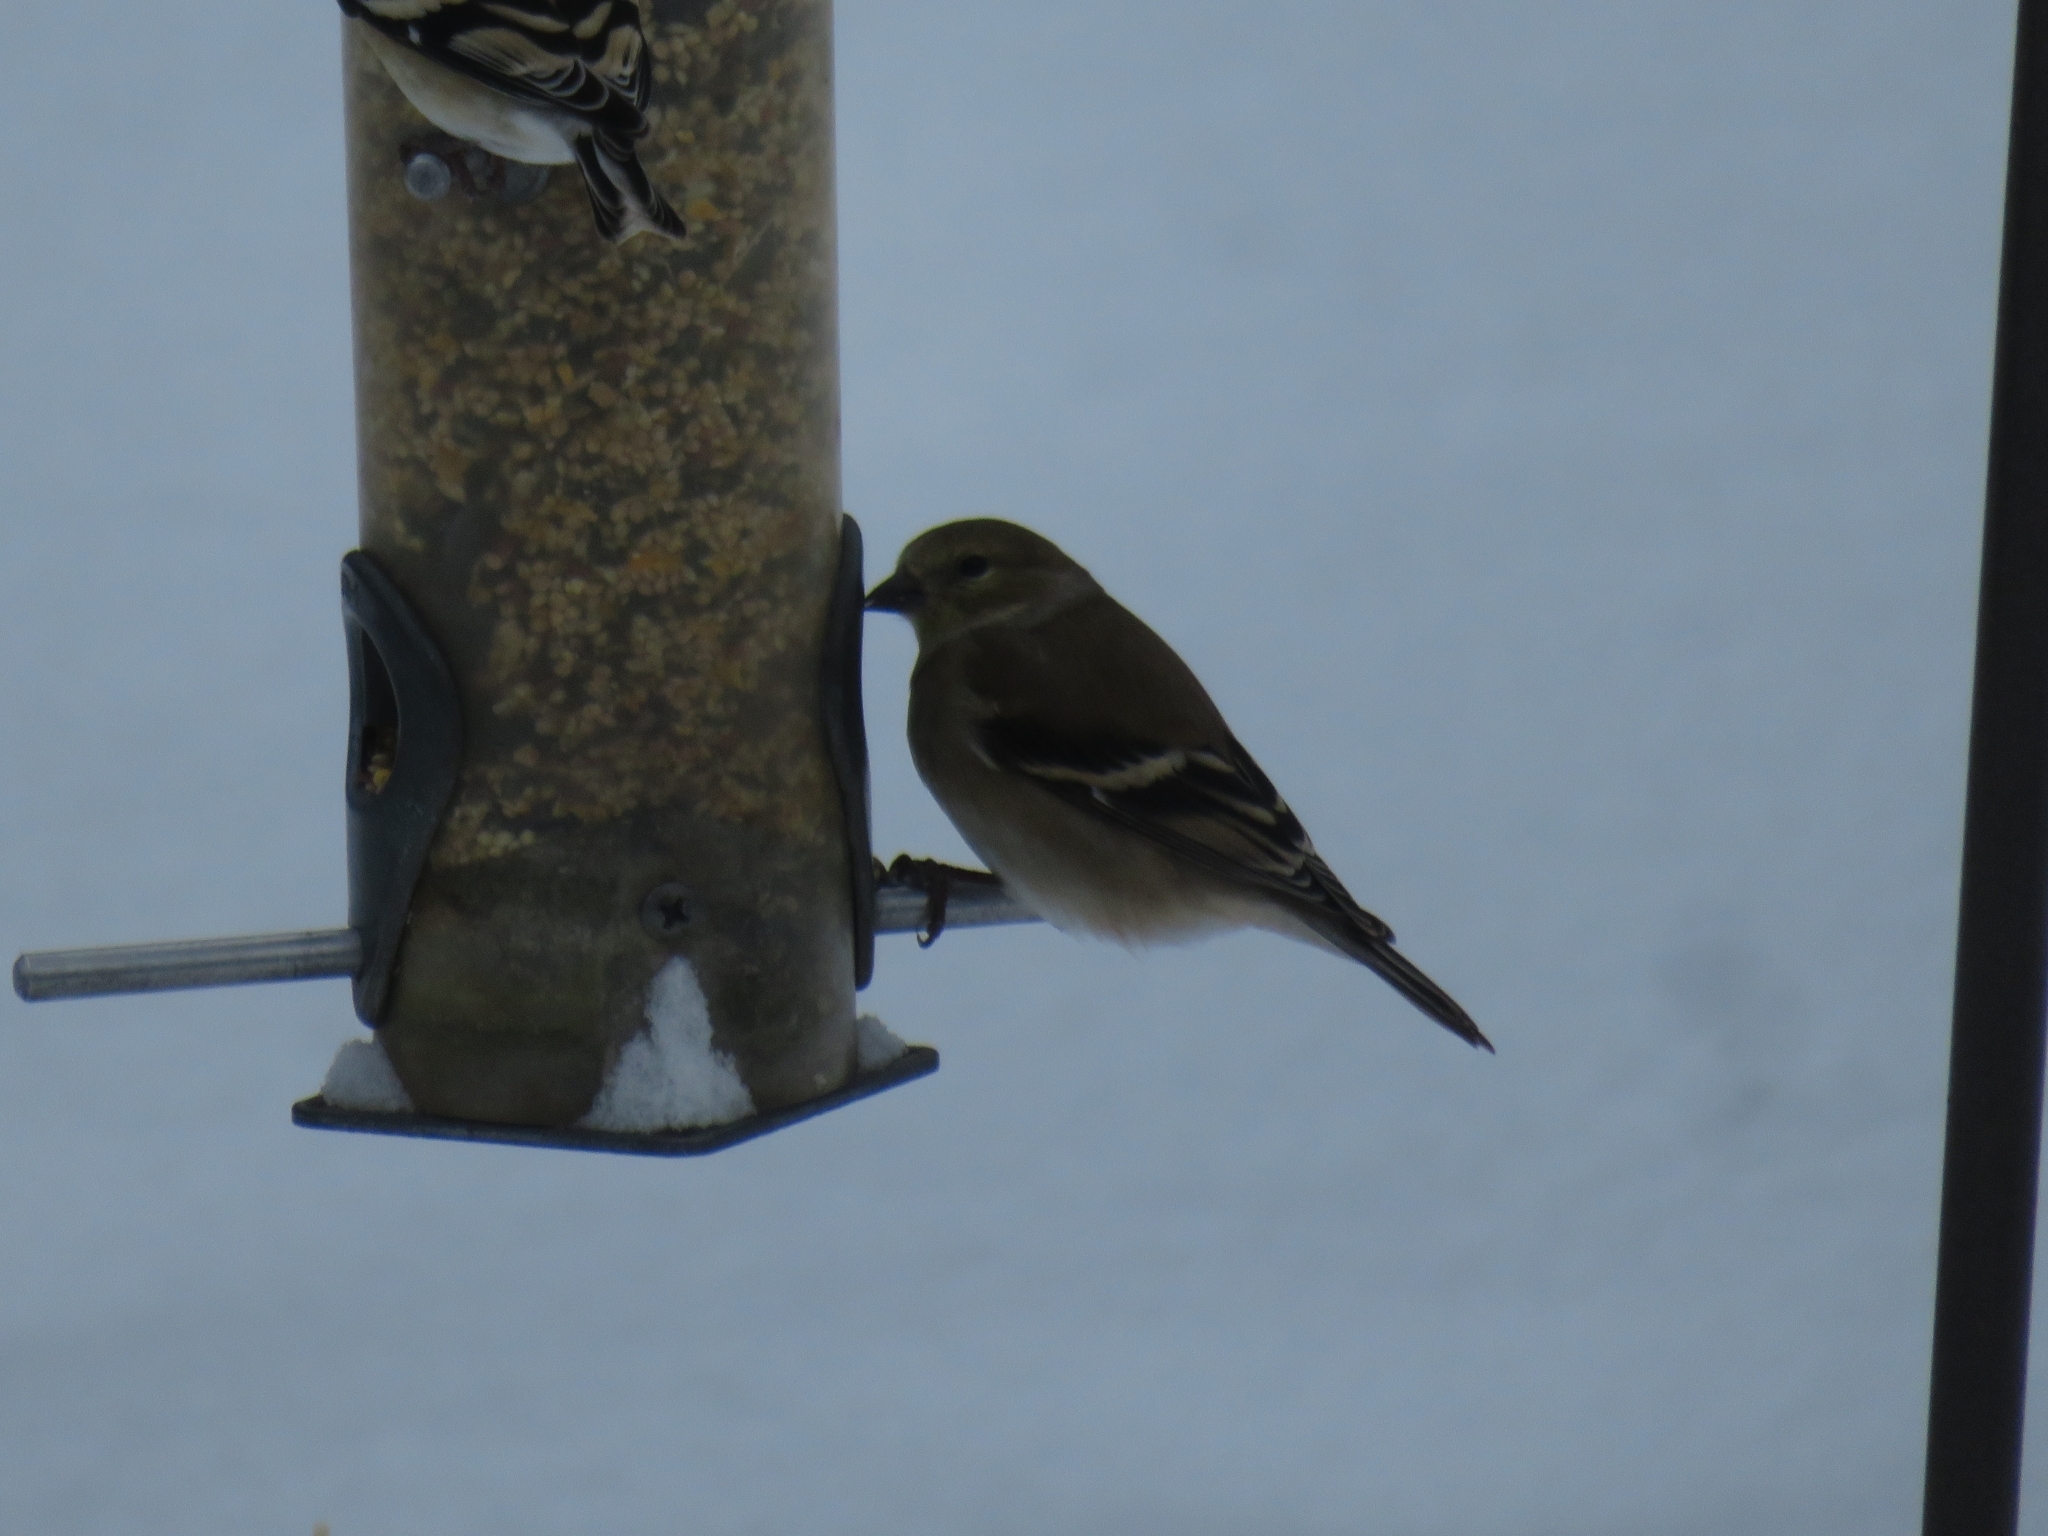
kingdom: Animalia
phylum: Chordata
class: Aves
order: Passeriformes
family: Fringillidae
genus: Spinus
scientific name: Spinus tristis
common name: American goldfinch
